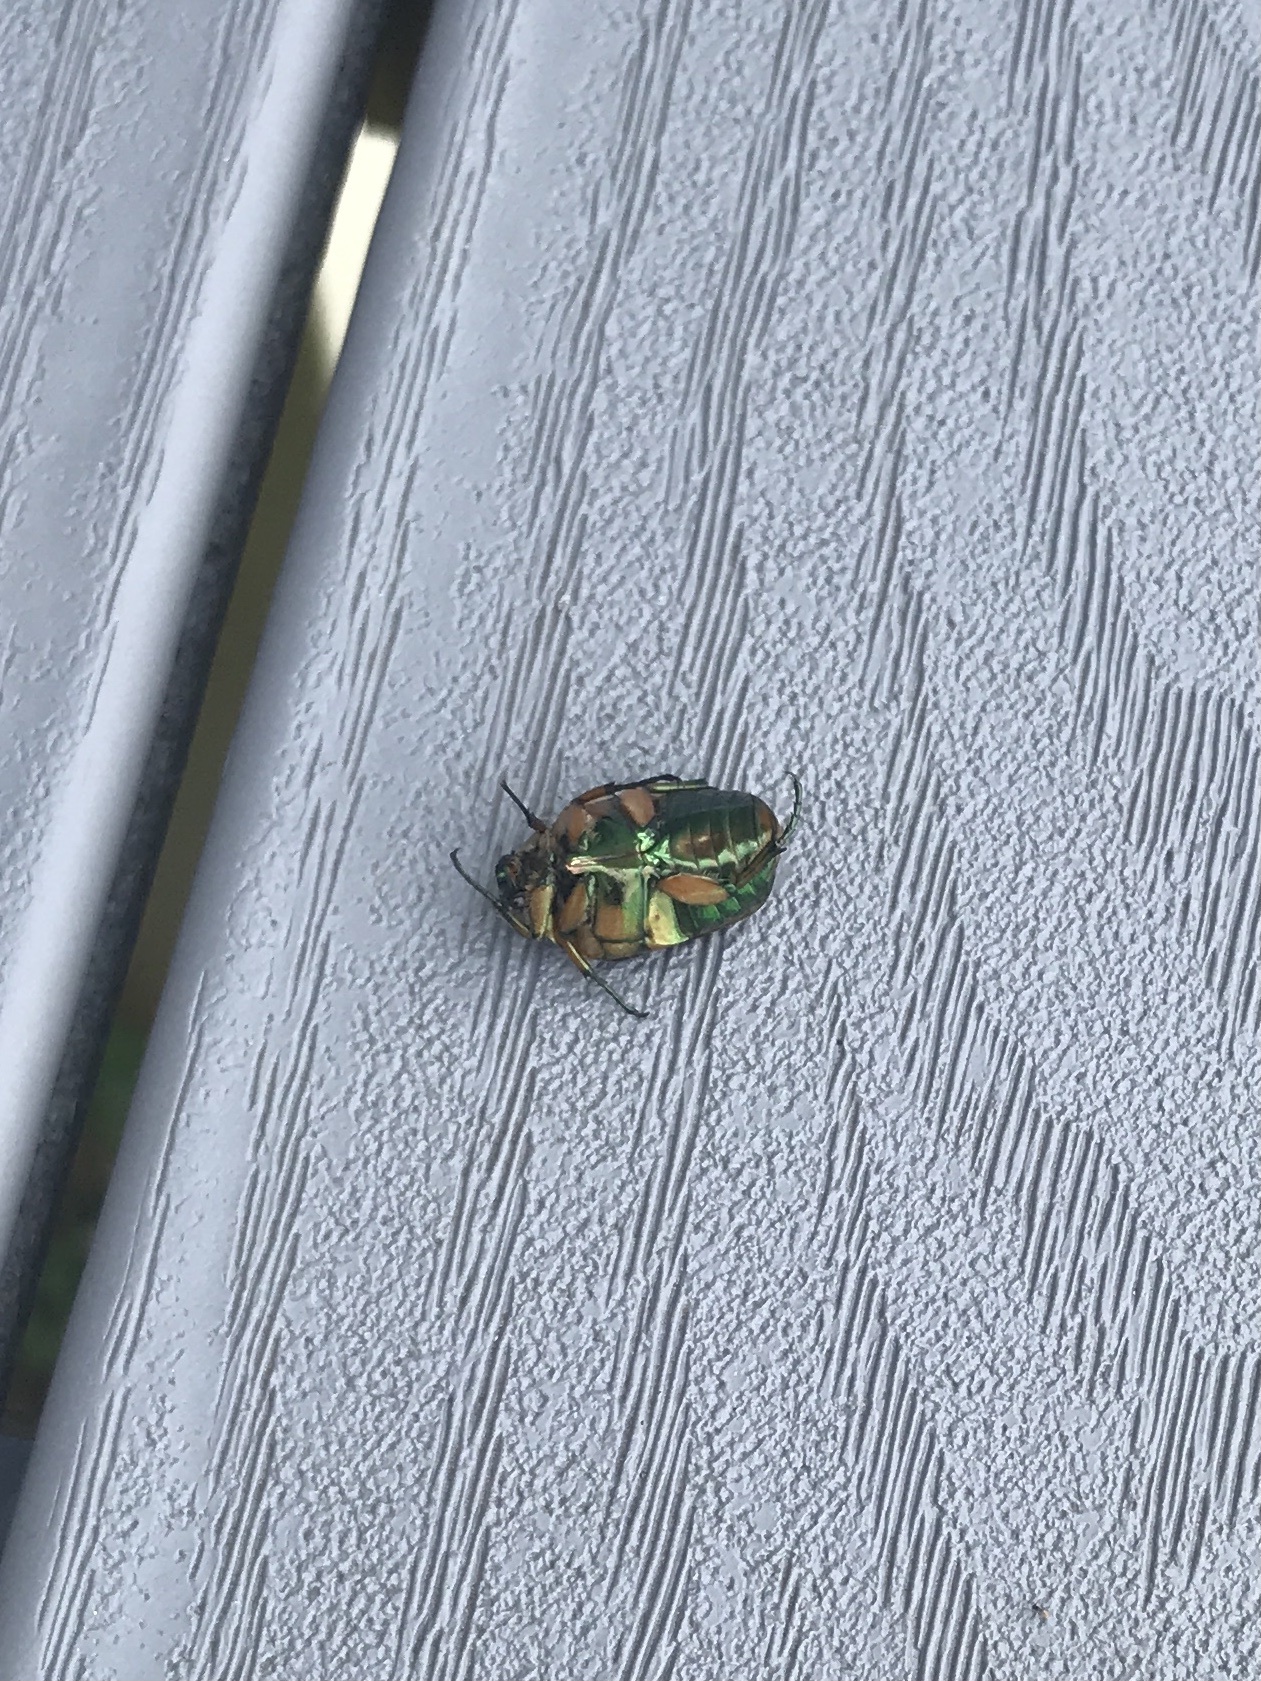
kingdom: Animalia
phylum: Arthropoda
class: Insecta
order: Coleoptera
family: Scarabaeidae
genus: Cotinis
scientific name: Cotinis nitida
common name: Common green june beetle
